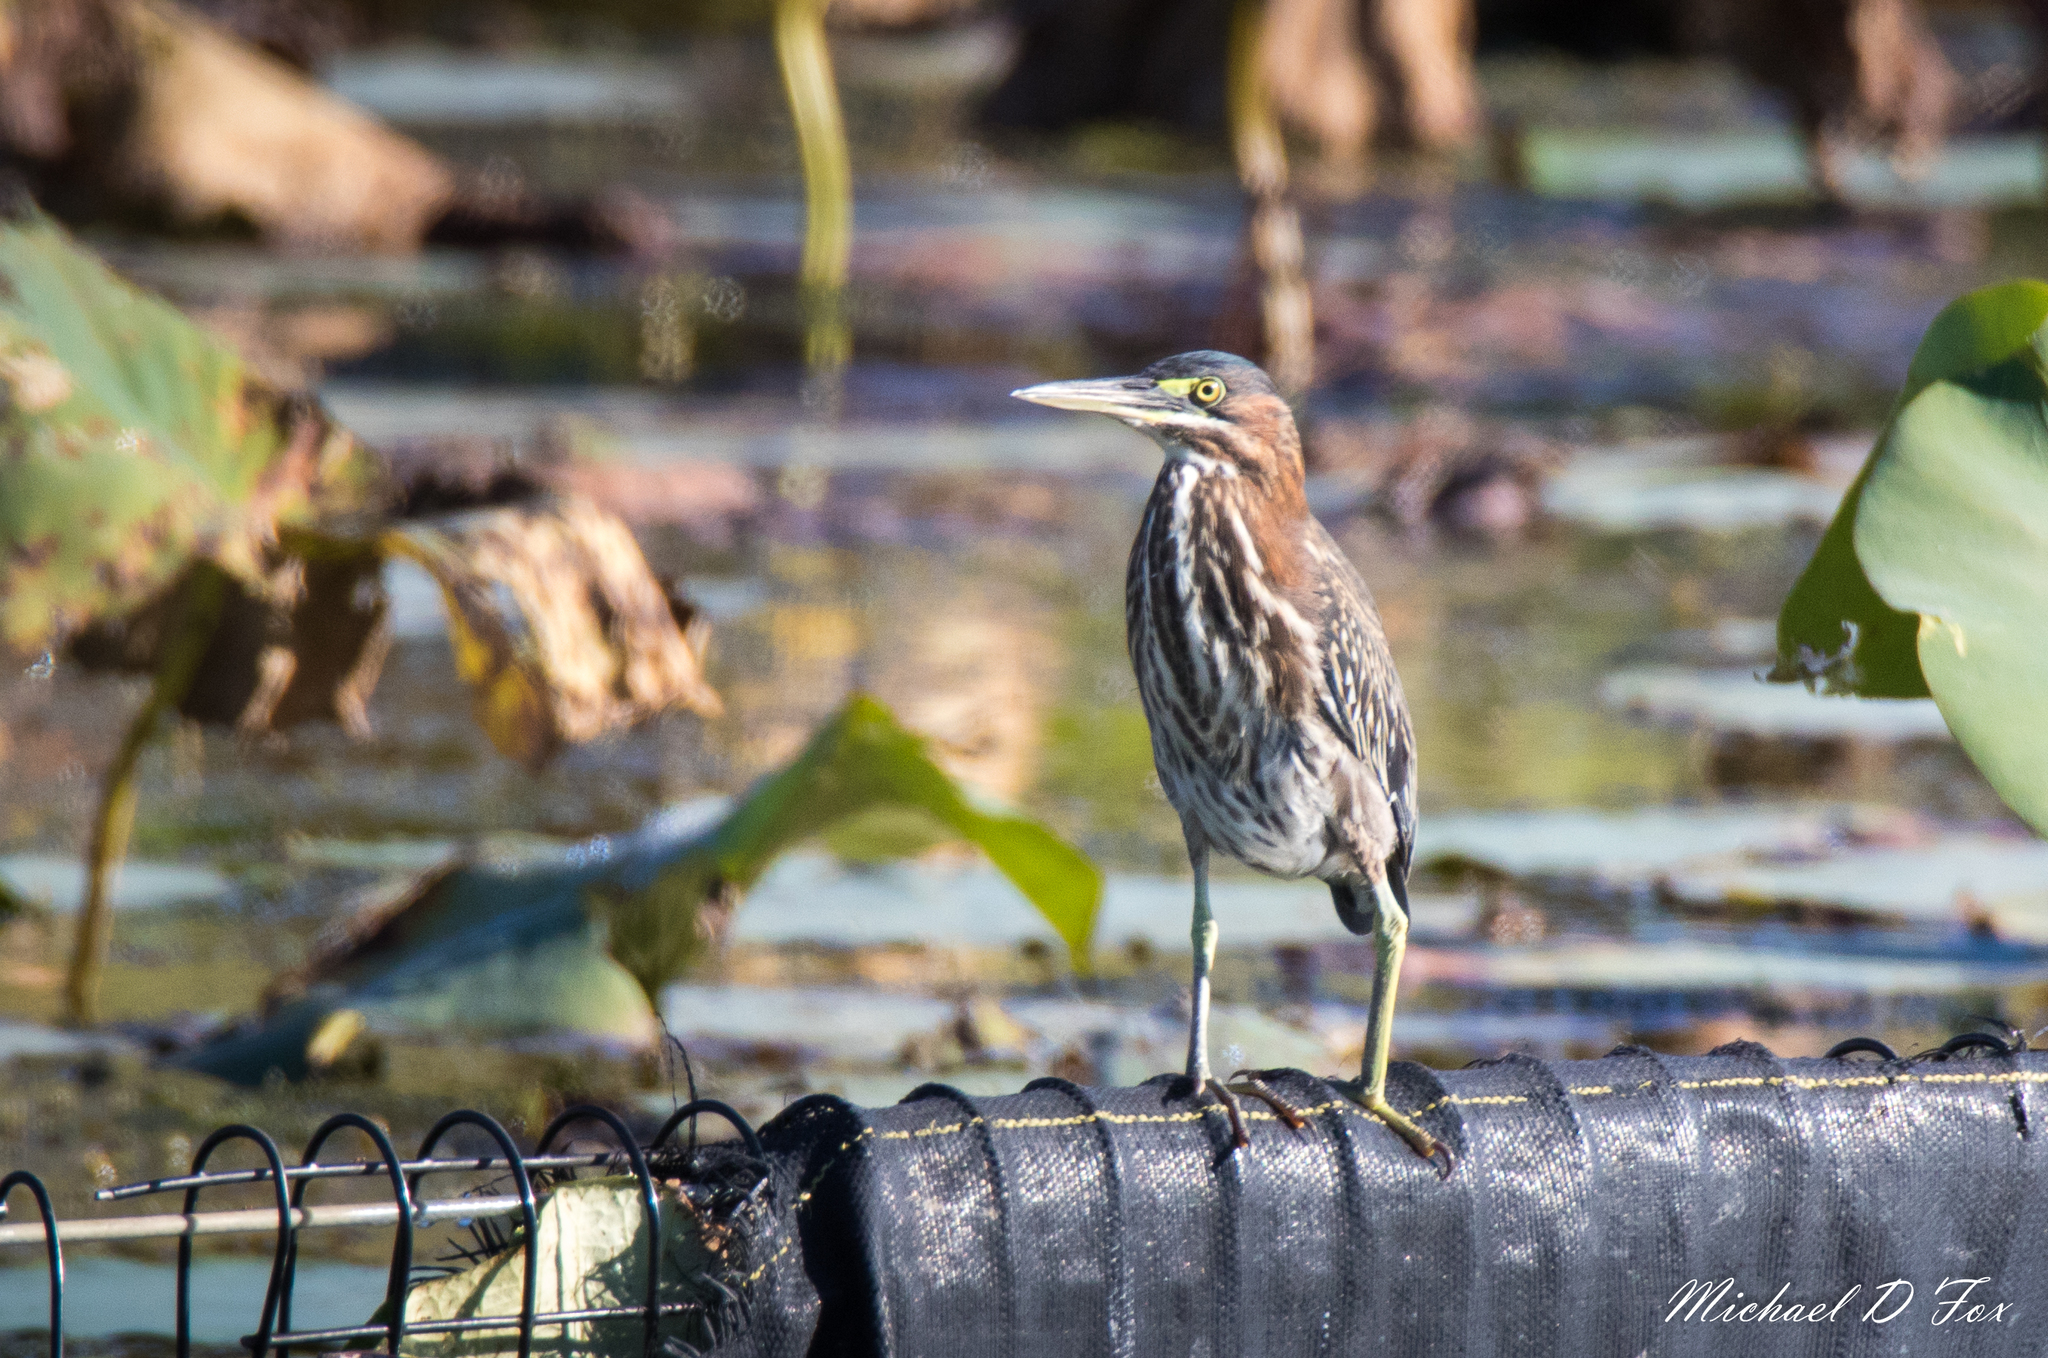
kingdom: Animalia
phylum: Chordata
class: Aves
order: Pelecaniformes
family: Ardeidae
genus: Butorides
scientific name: Butorides virescens
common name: Green heron
